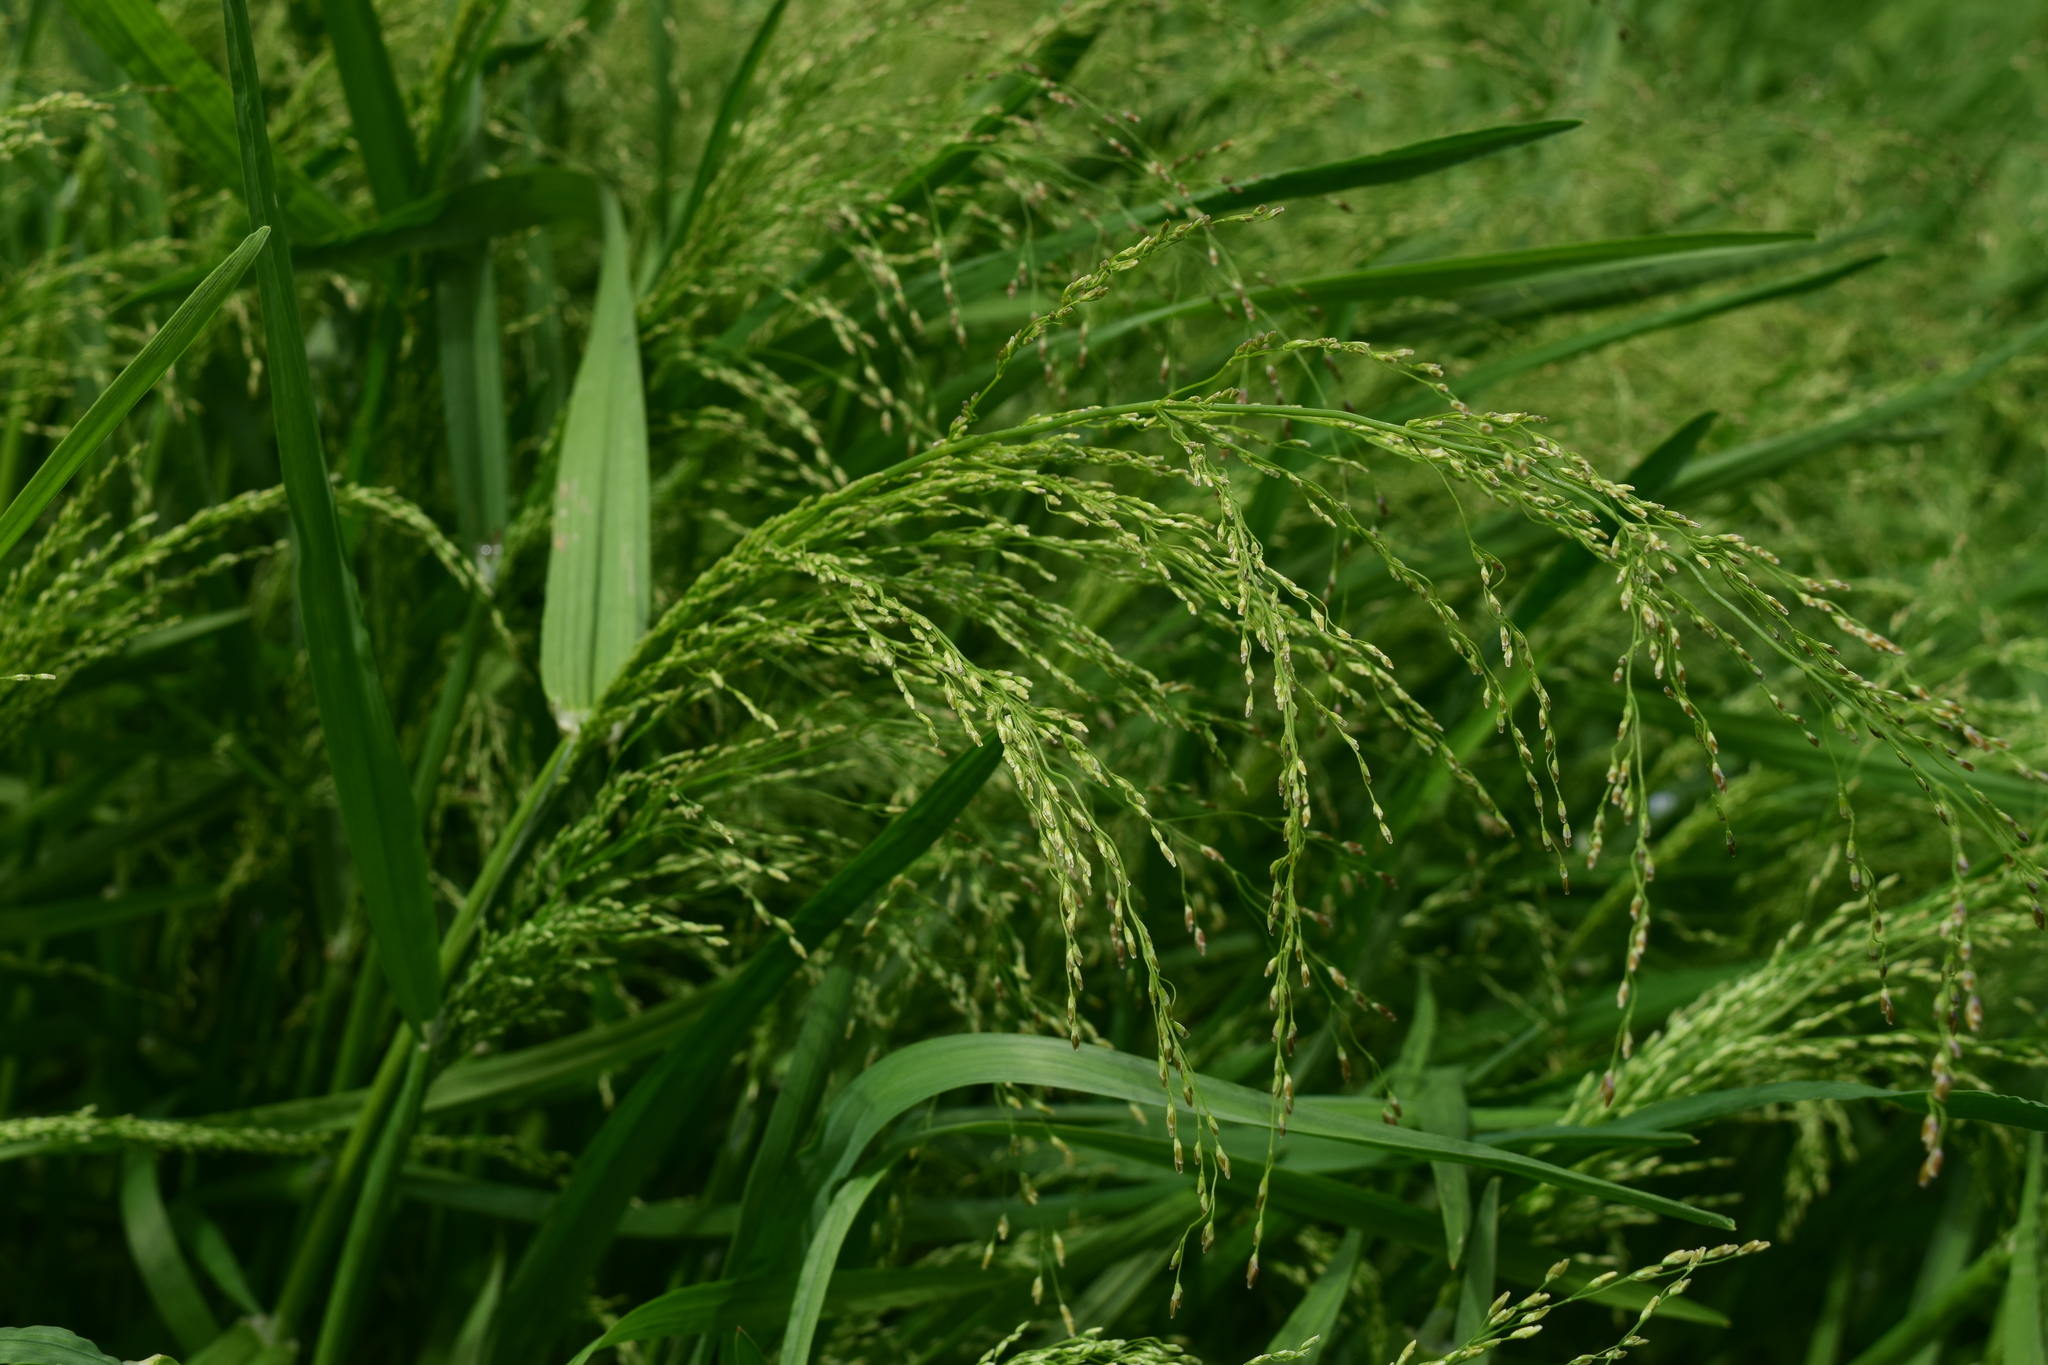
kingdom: Plantae
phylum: Tracheophyta
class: Liliopsida
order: Poales
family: Poaceae
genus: Catabrosa
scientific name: Catabrosa aquatica
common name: Whorl-grass
